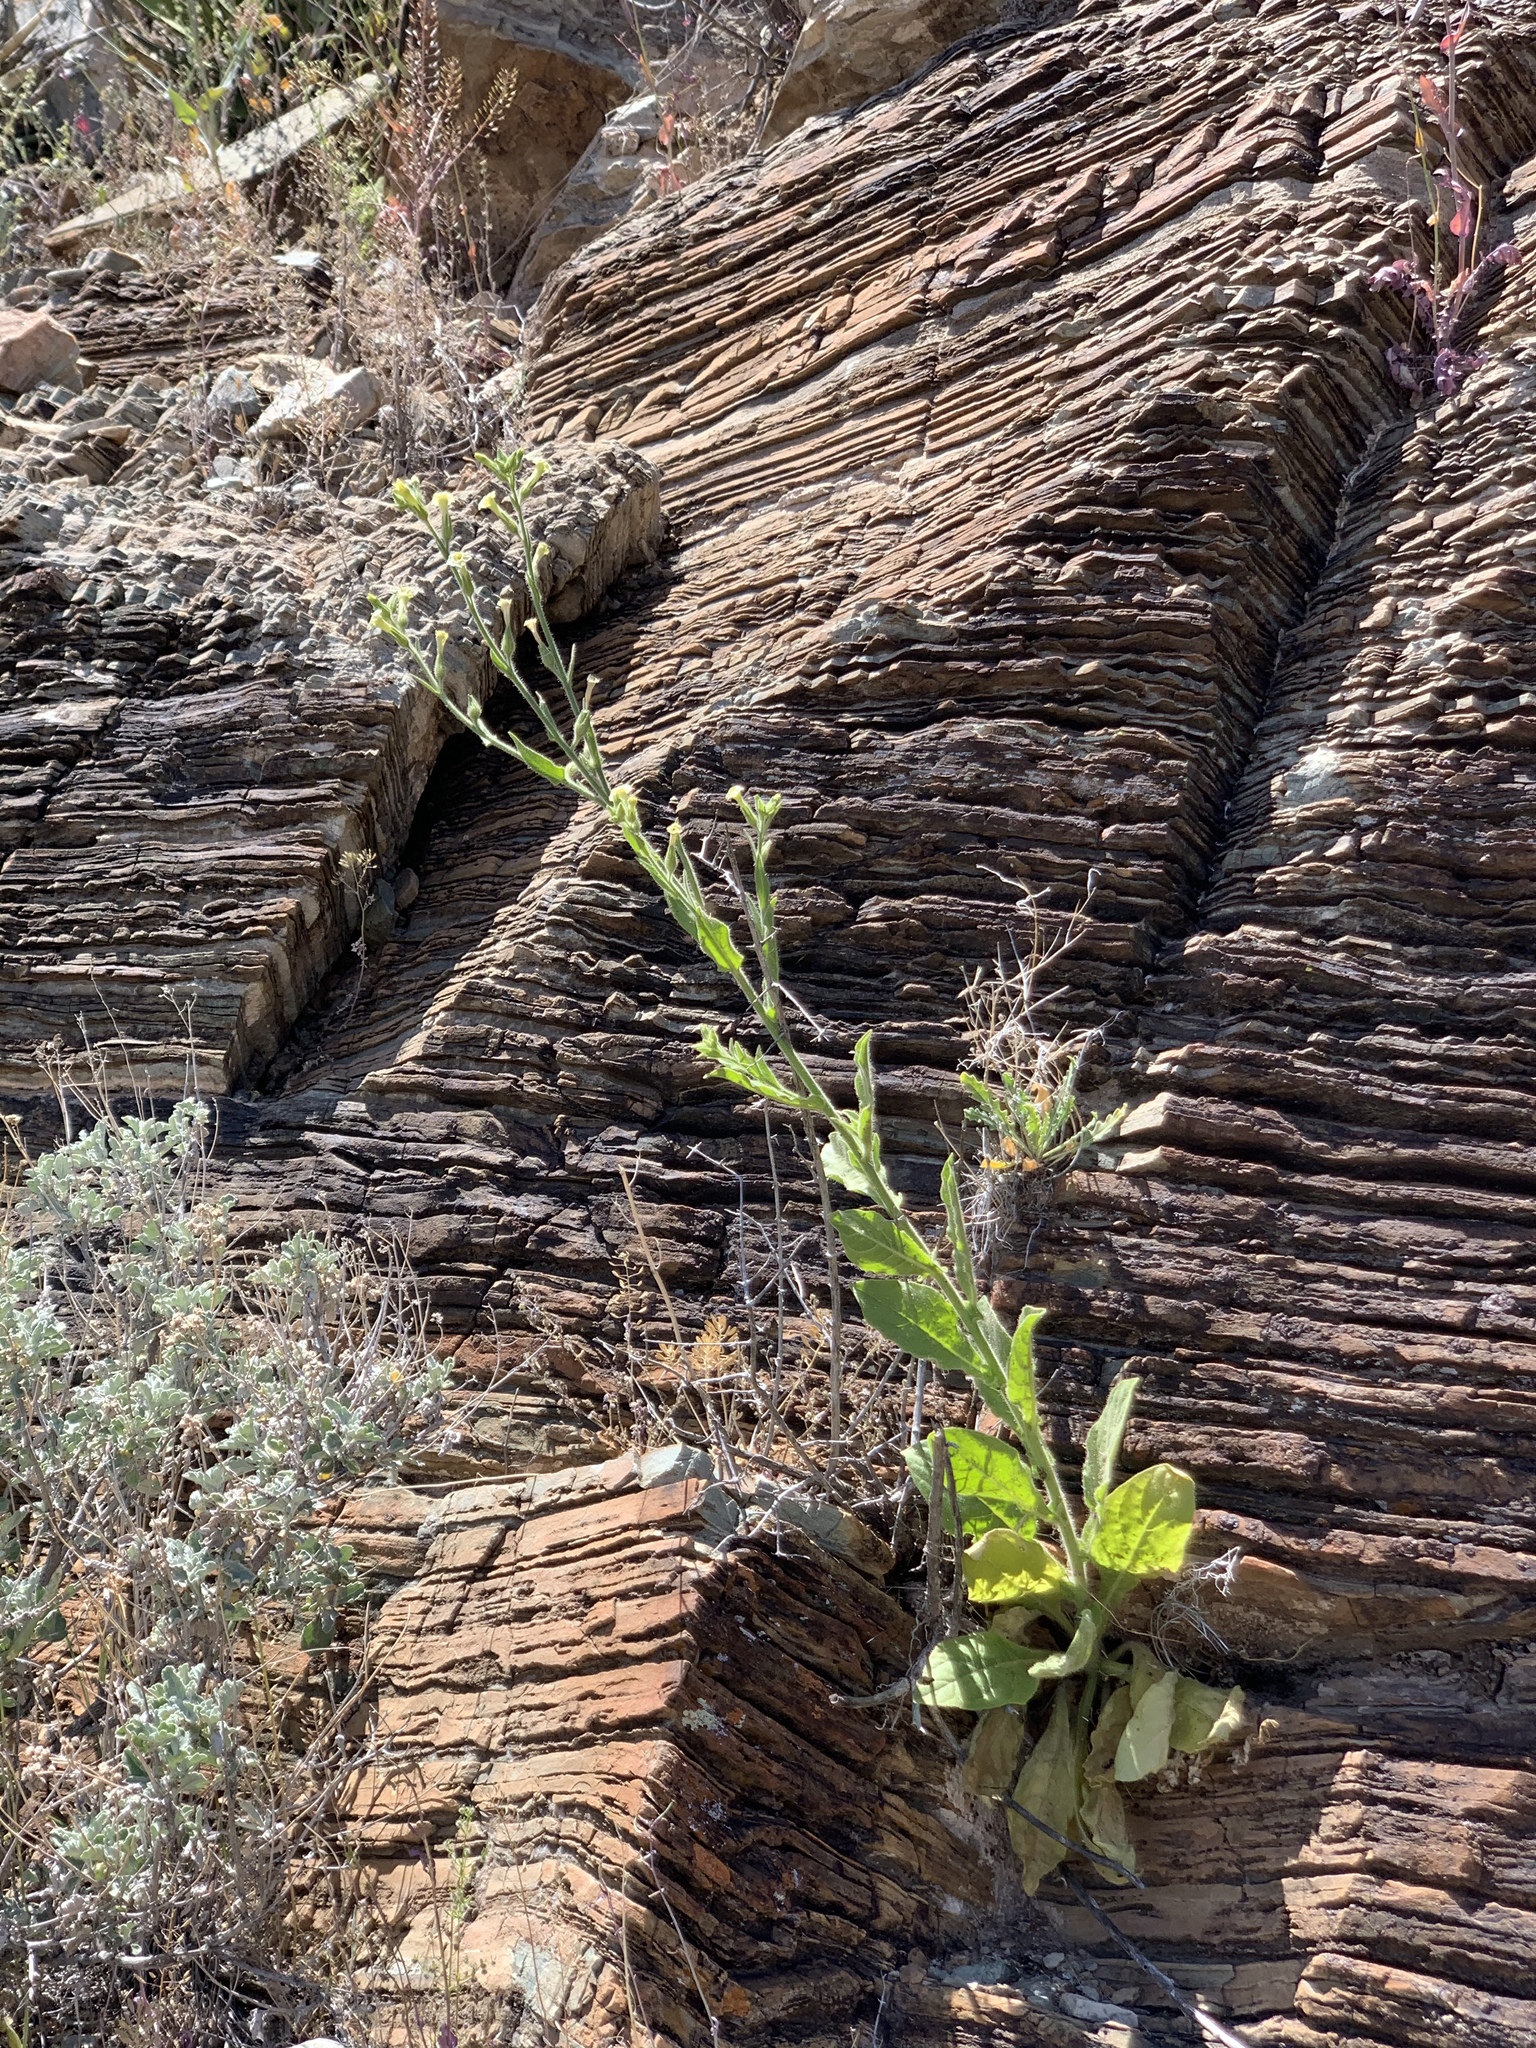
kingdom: Plantae
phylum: Tracheophyta
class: Magnoliopsida
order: Solanales
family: Solanaceae
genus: Nicotiana
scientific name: Nicotiana obtusifolia
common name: Desert tobacco
